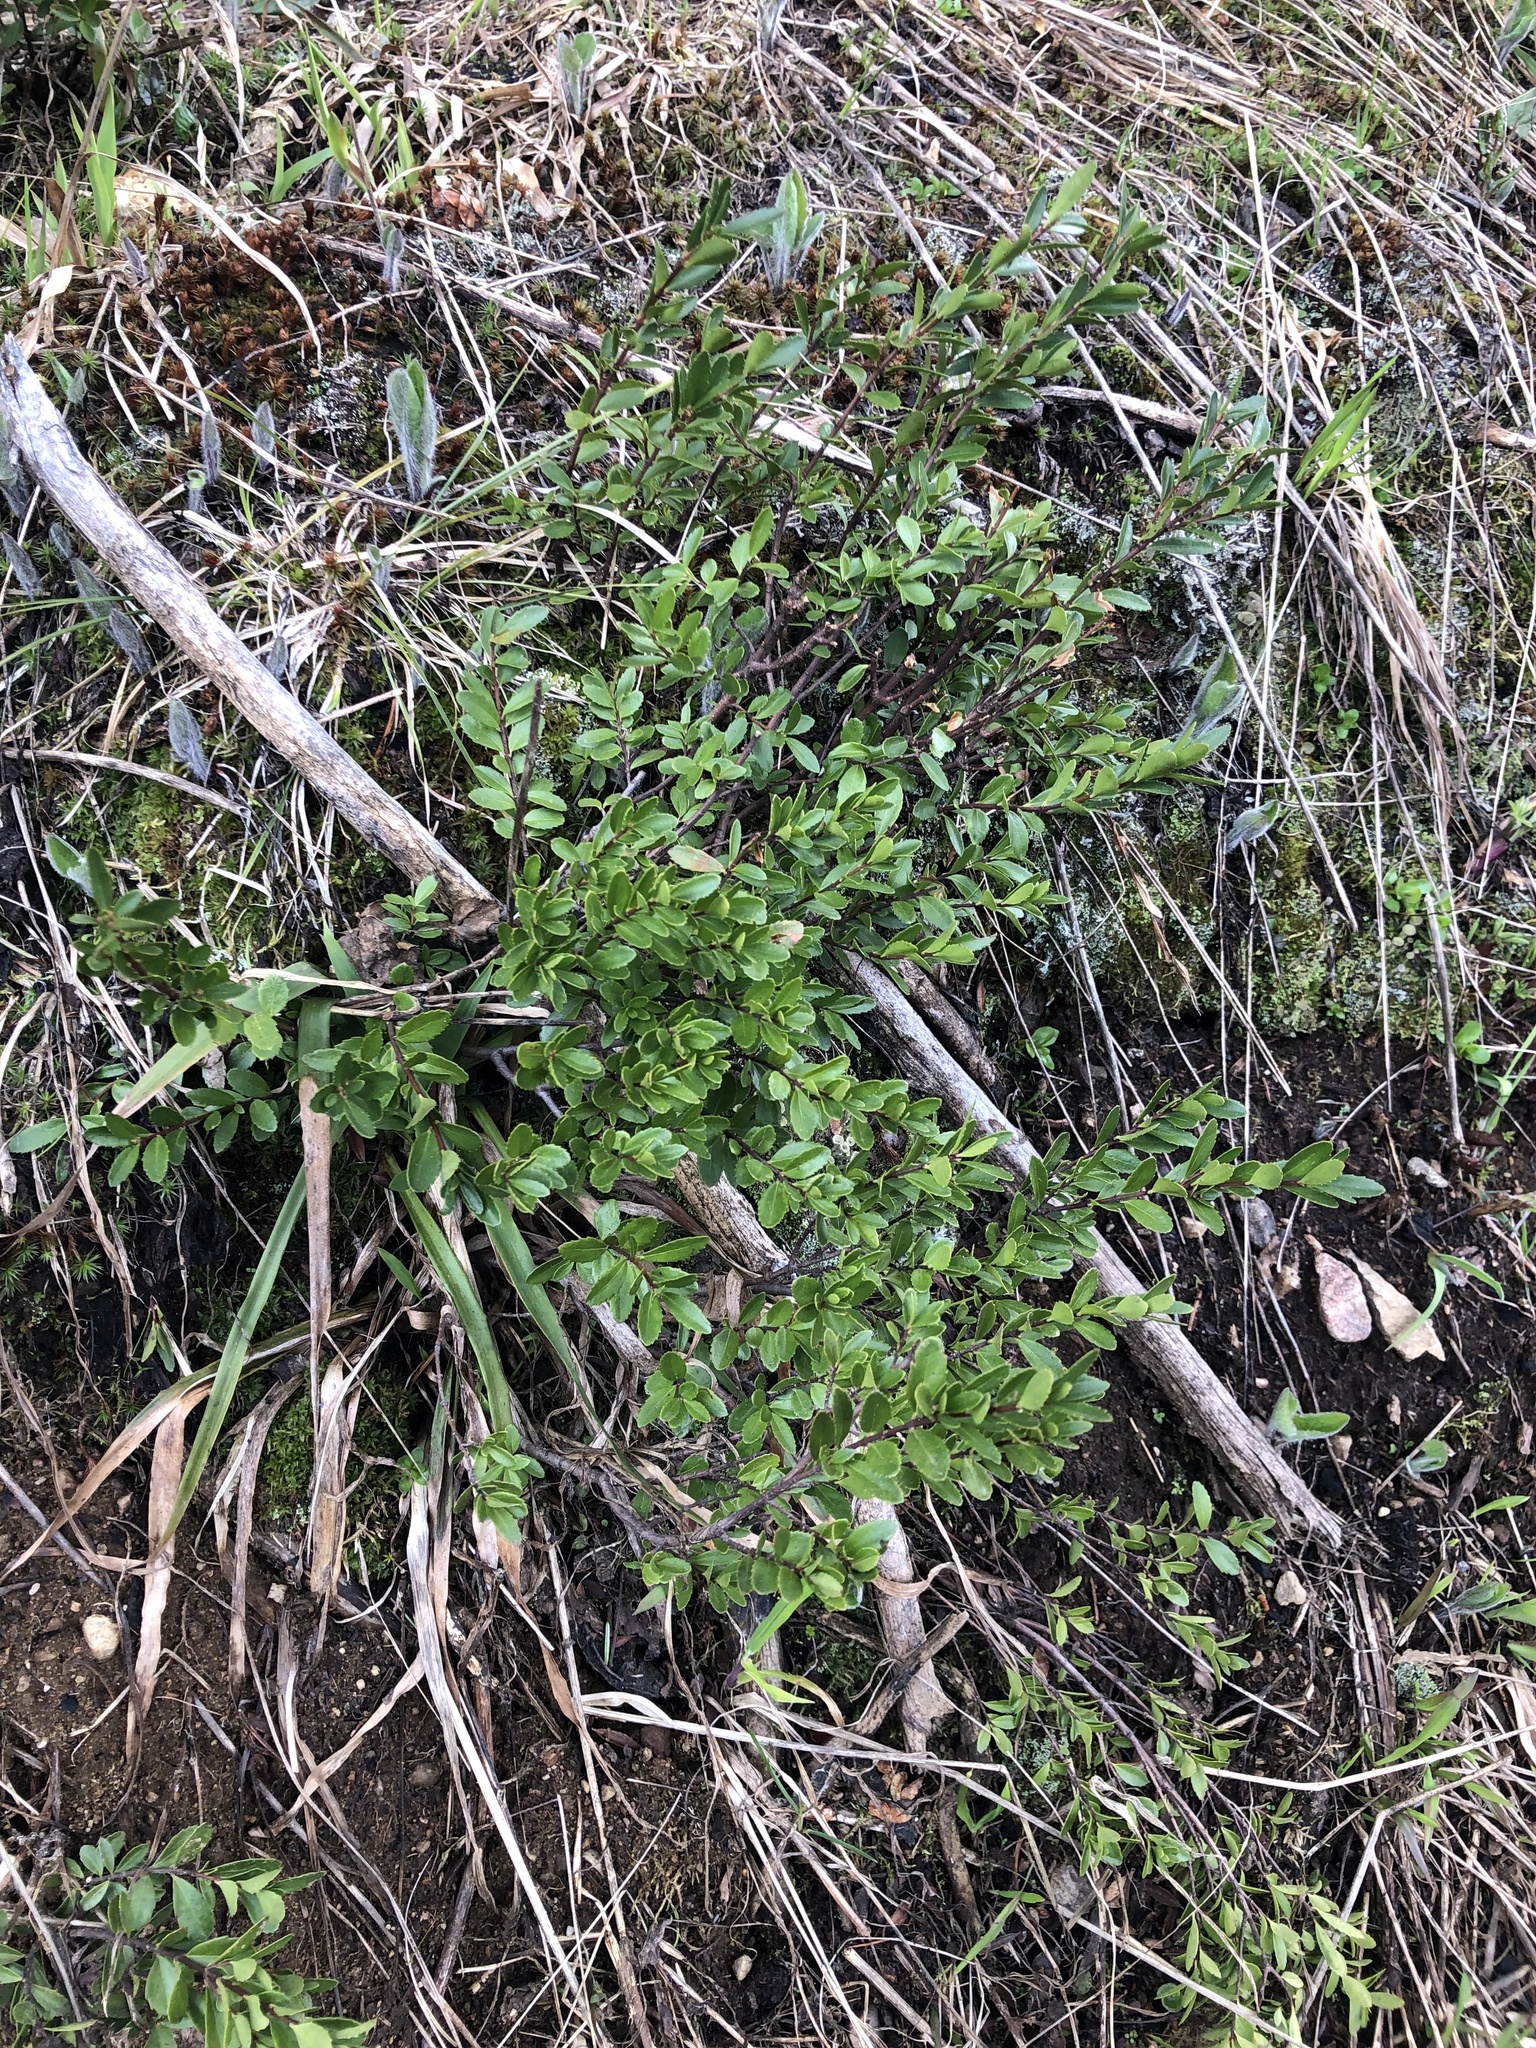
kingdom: Plantae
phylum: Tracheophyta
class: Magnoliopsida
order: Celastrales
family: Celastraceae
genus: Paxistima
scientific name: Paxistima myrsinites
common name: Mountain-lover
